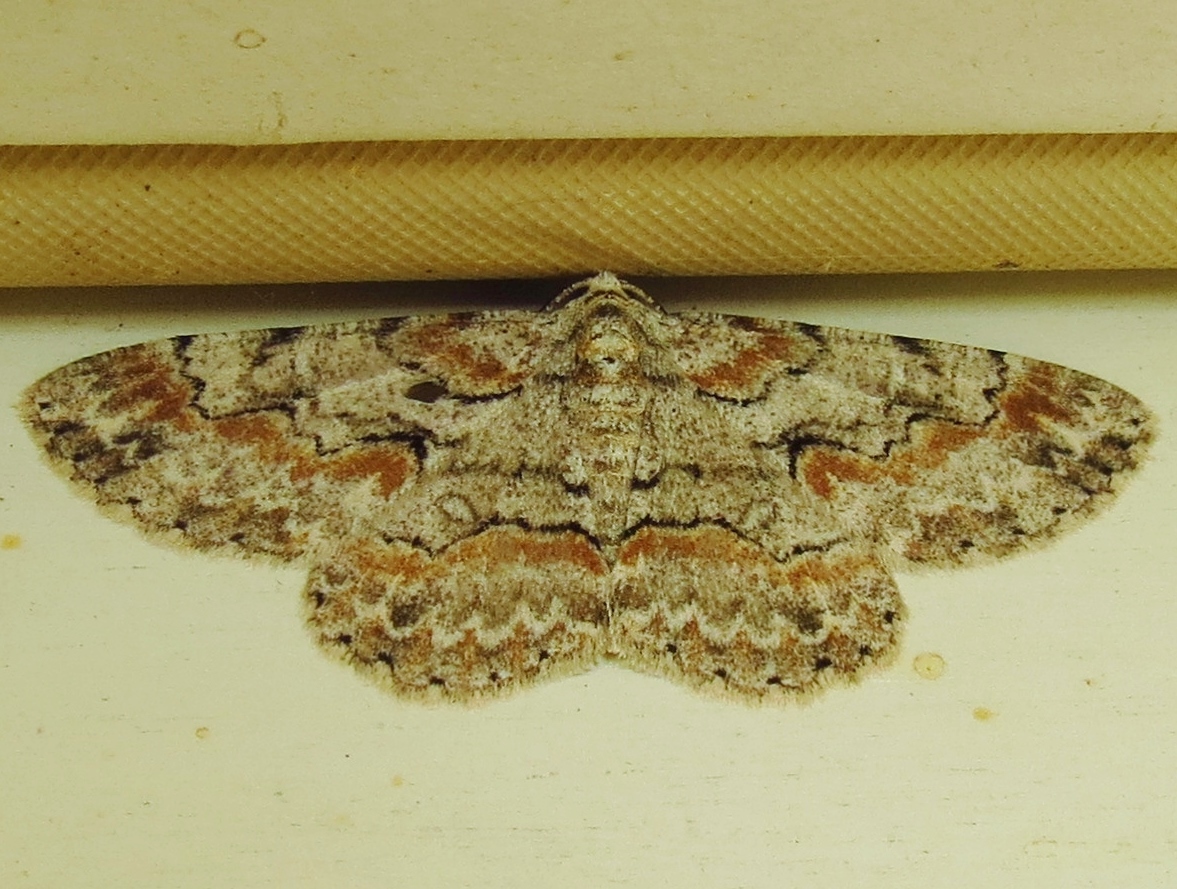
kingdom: Animalia
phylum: Arthropoda
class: Insecta
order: Lepidoptera
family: Geometridae
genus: Iridopsis
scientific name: Iridopsis defectaria
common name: Brown-shaded gray
